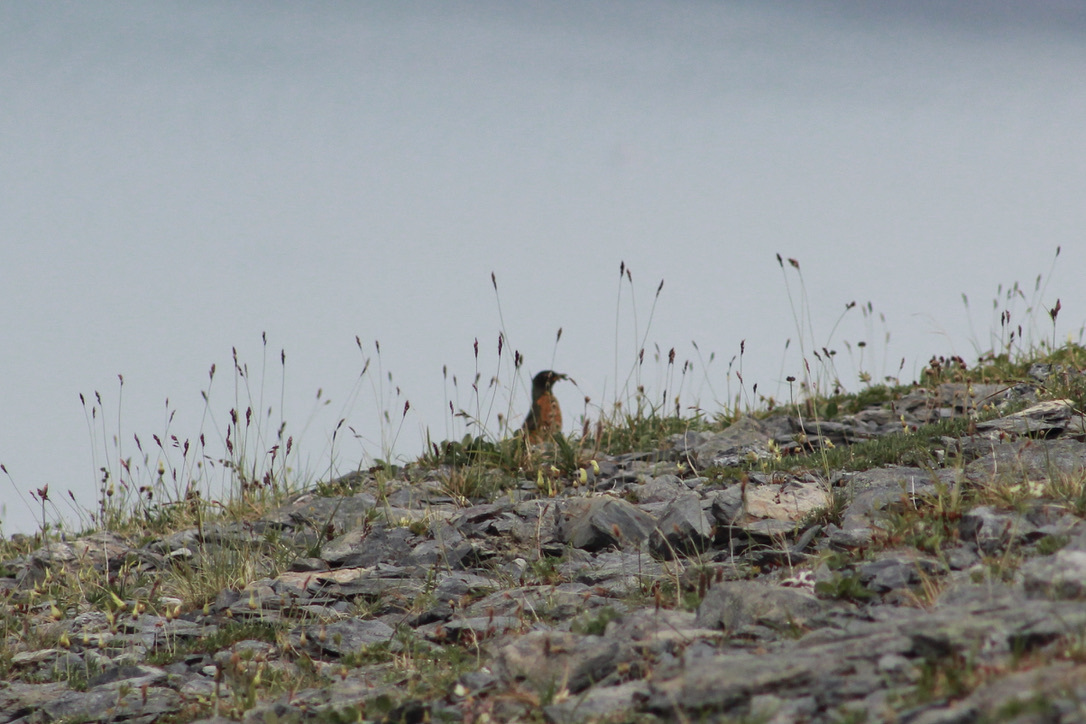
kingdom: Animalia
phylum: Chordata
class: Aves
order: Passeriformes
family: Turdidae
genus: Turdus
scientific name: Turdus migratorius
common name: American robin
